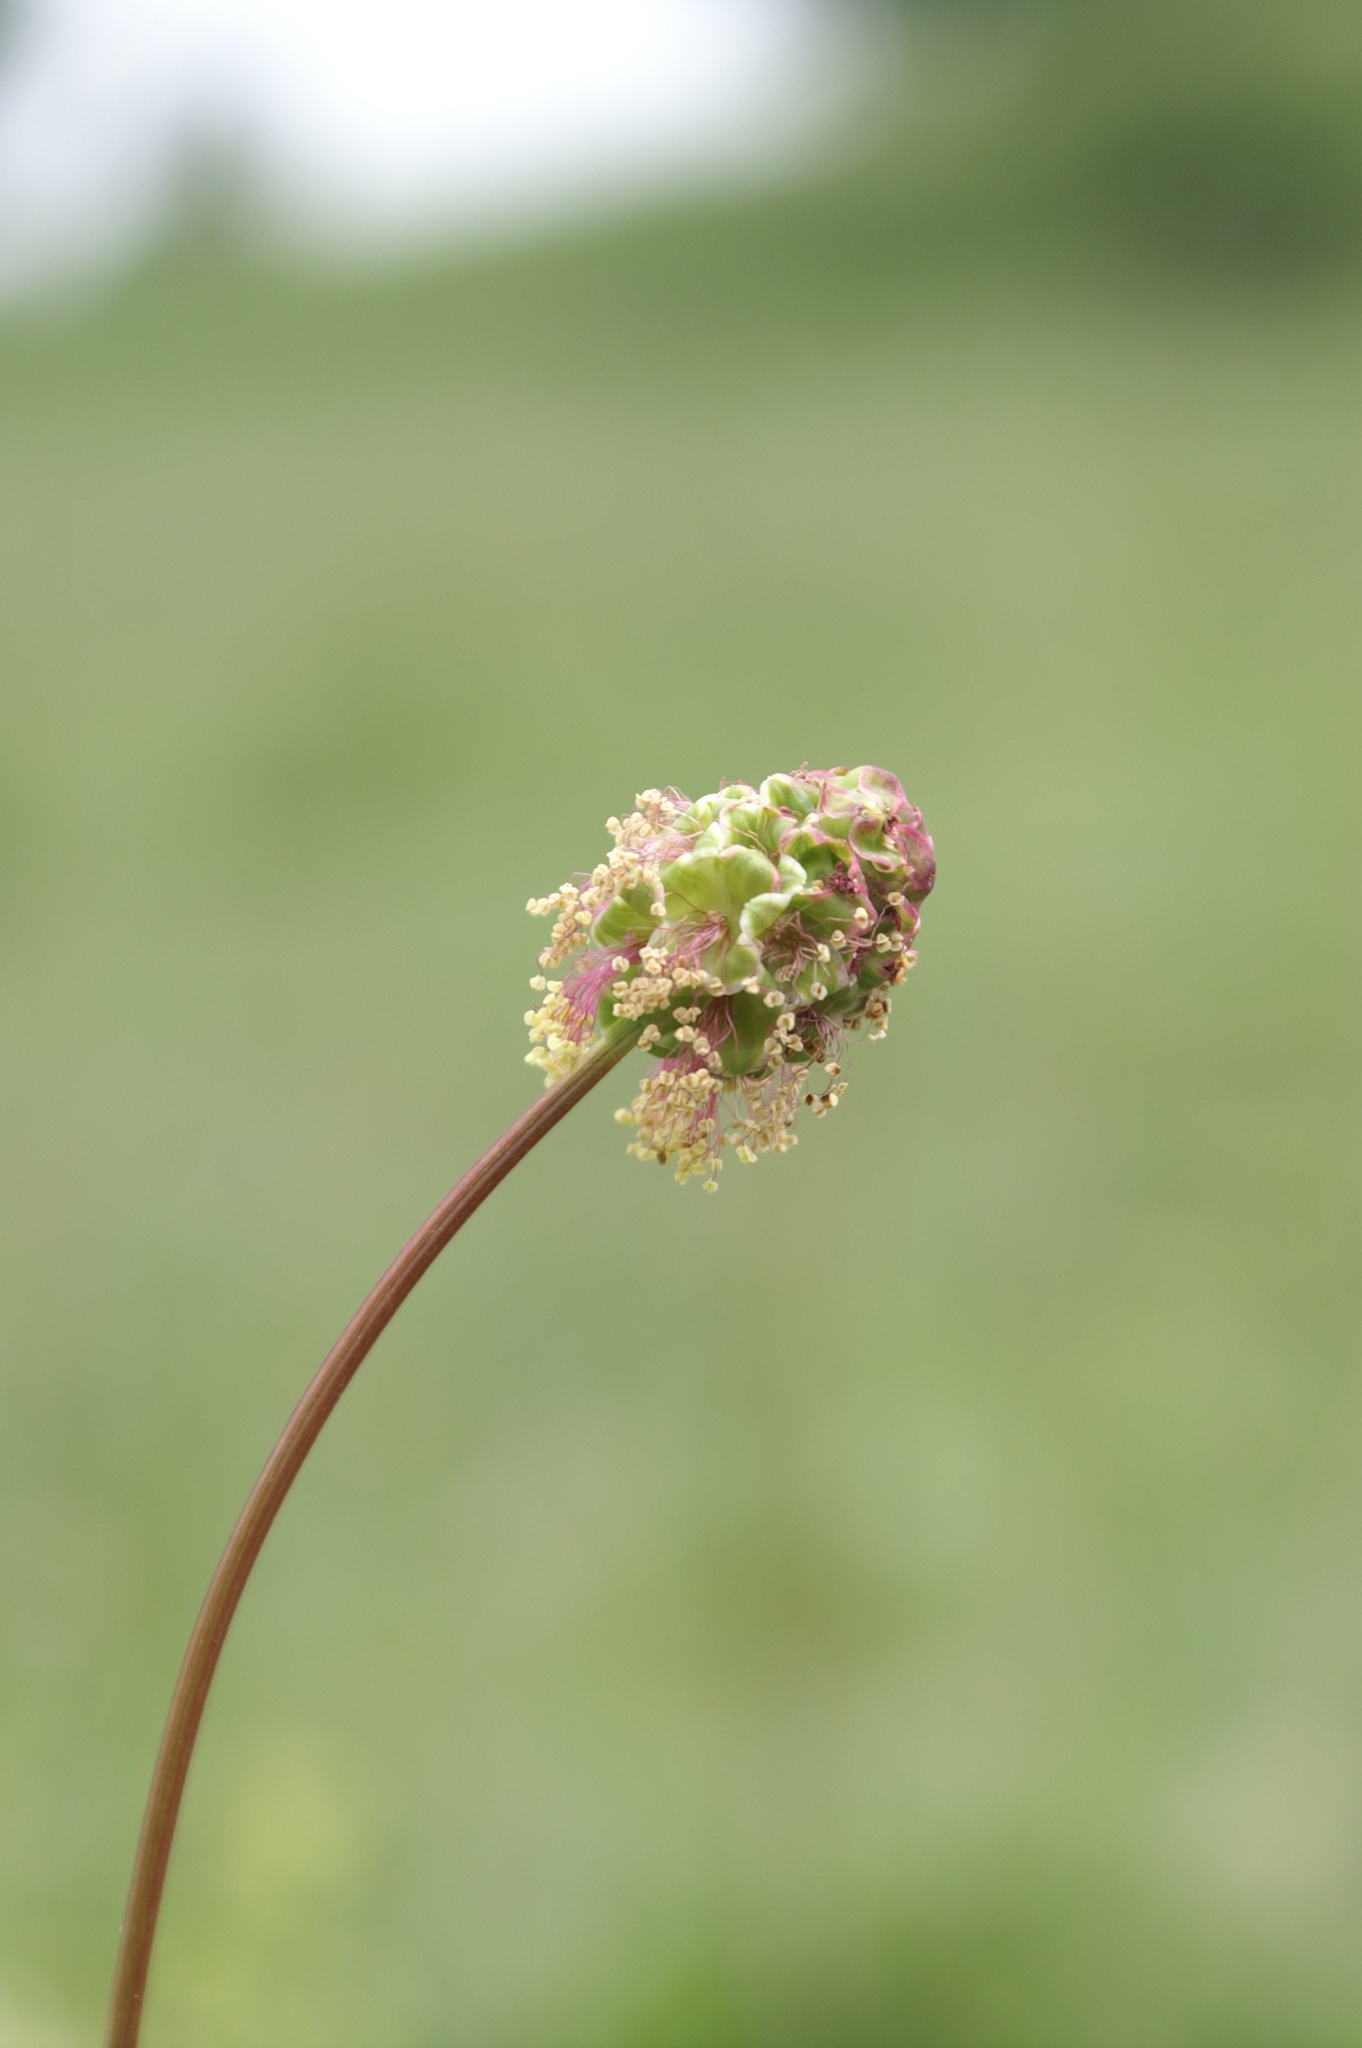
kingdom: Plantae
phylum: Tracheophyta
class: Magnoliopsida
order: Rosales
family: Rosaceae
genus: Poterium
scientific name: Poterium sanguisorba
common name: Salad burnet
